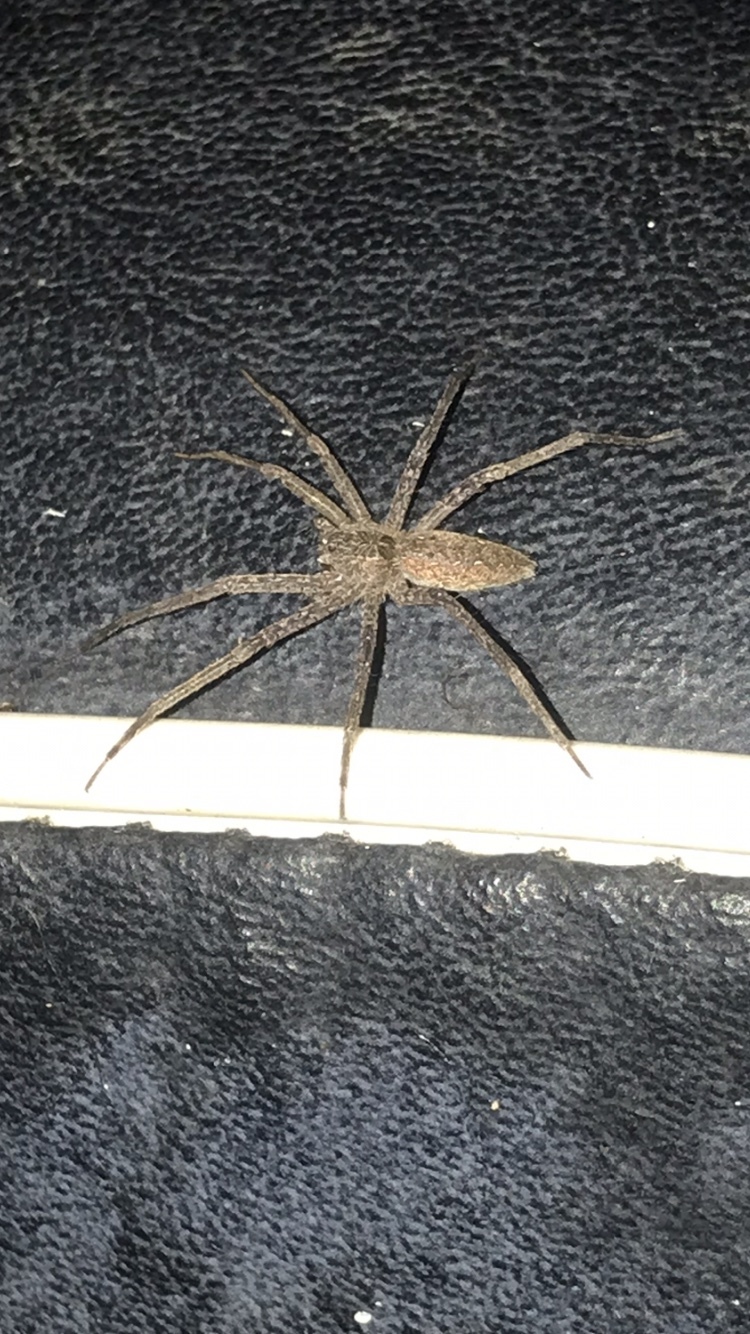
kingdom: Animalia
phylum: Arthropoda
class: Arachnida
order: Araneae
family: Pisauridae
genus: Pisaurina
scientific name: Pisaurina mira
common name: American nursery web spider
